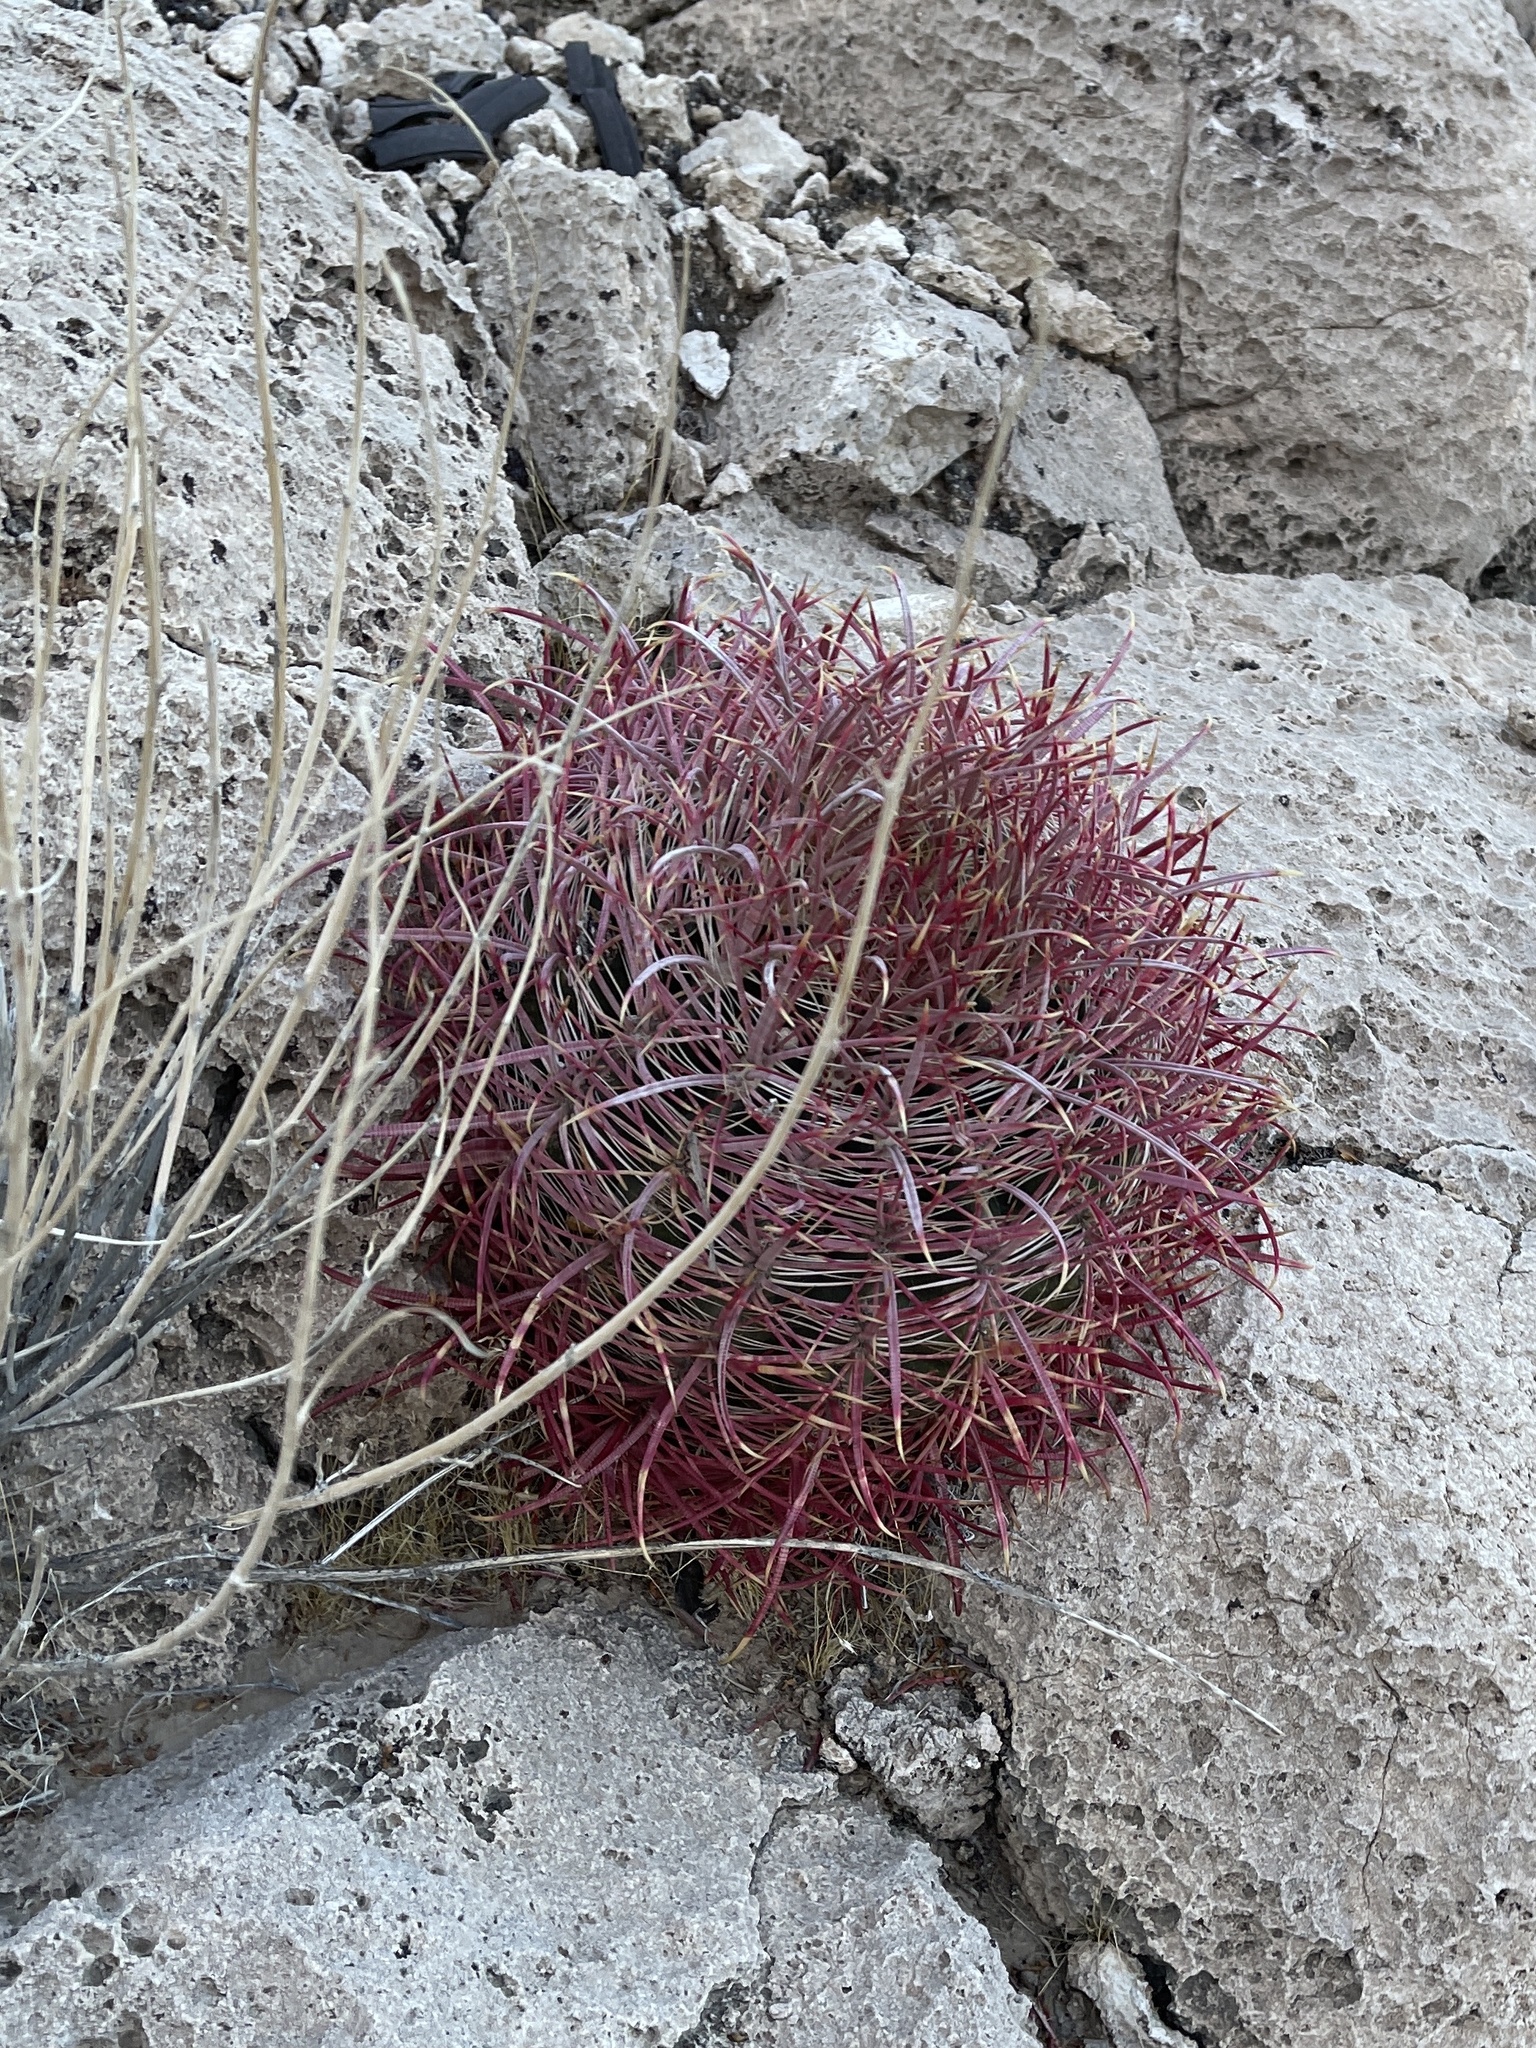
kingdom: Plantae
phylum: Tracheophyta
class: Magnoliopsida
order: Caryophyllales
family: Cactaceae
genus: Ferocactus
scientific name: Ferocactus cylindraceus
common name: California barrel cactus
